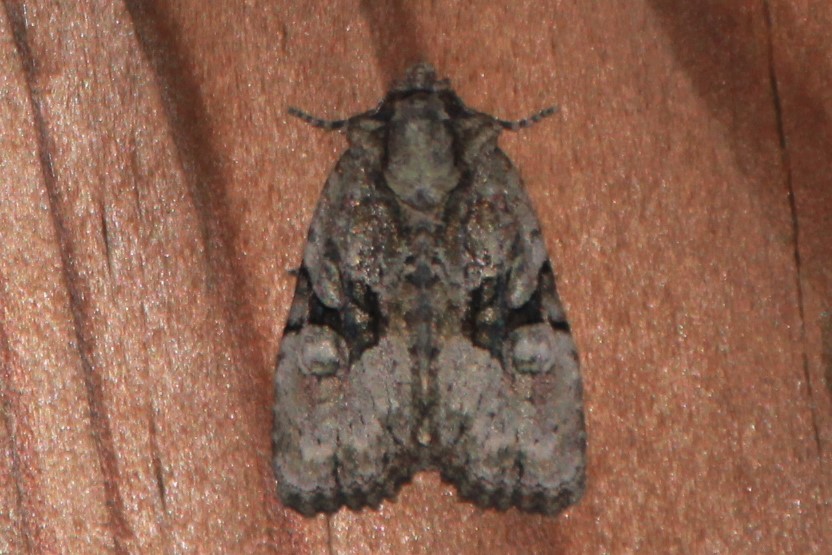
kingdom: Animalia
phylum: Arthropoda
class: Insecta
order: Lepidoptera
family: Noctuidae
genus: Oligia
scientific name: Oligia modica
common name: Black-banded brocade
